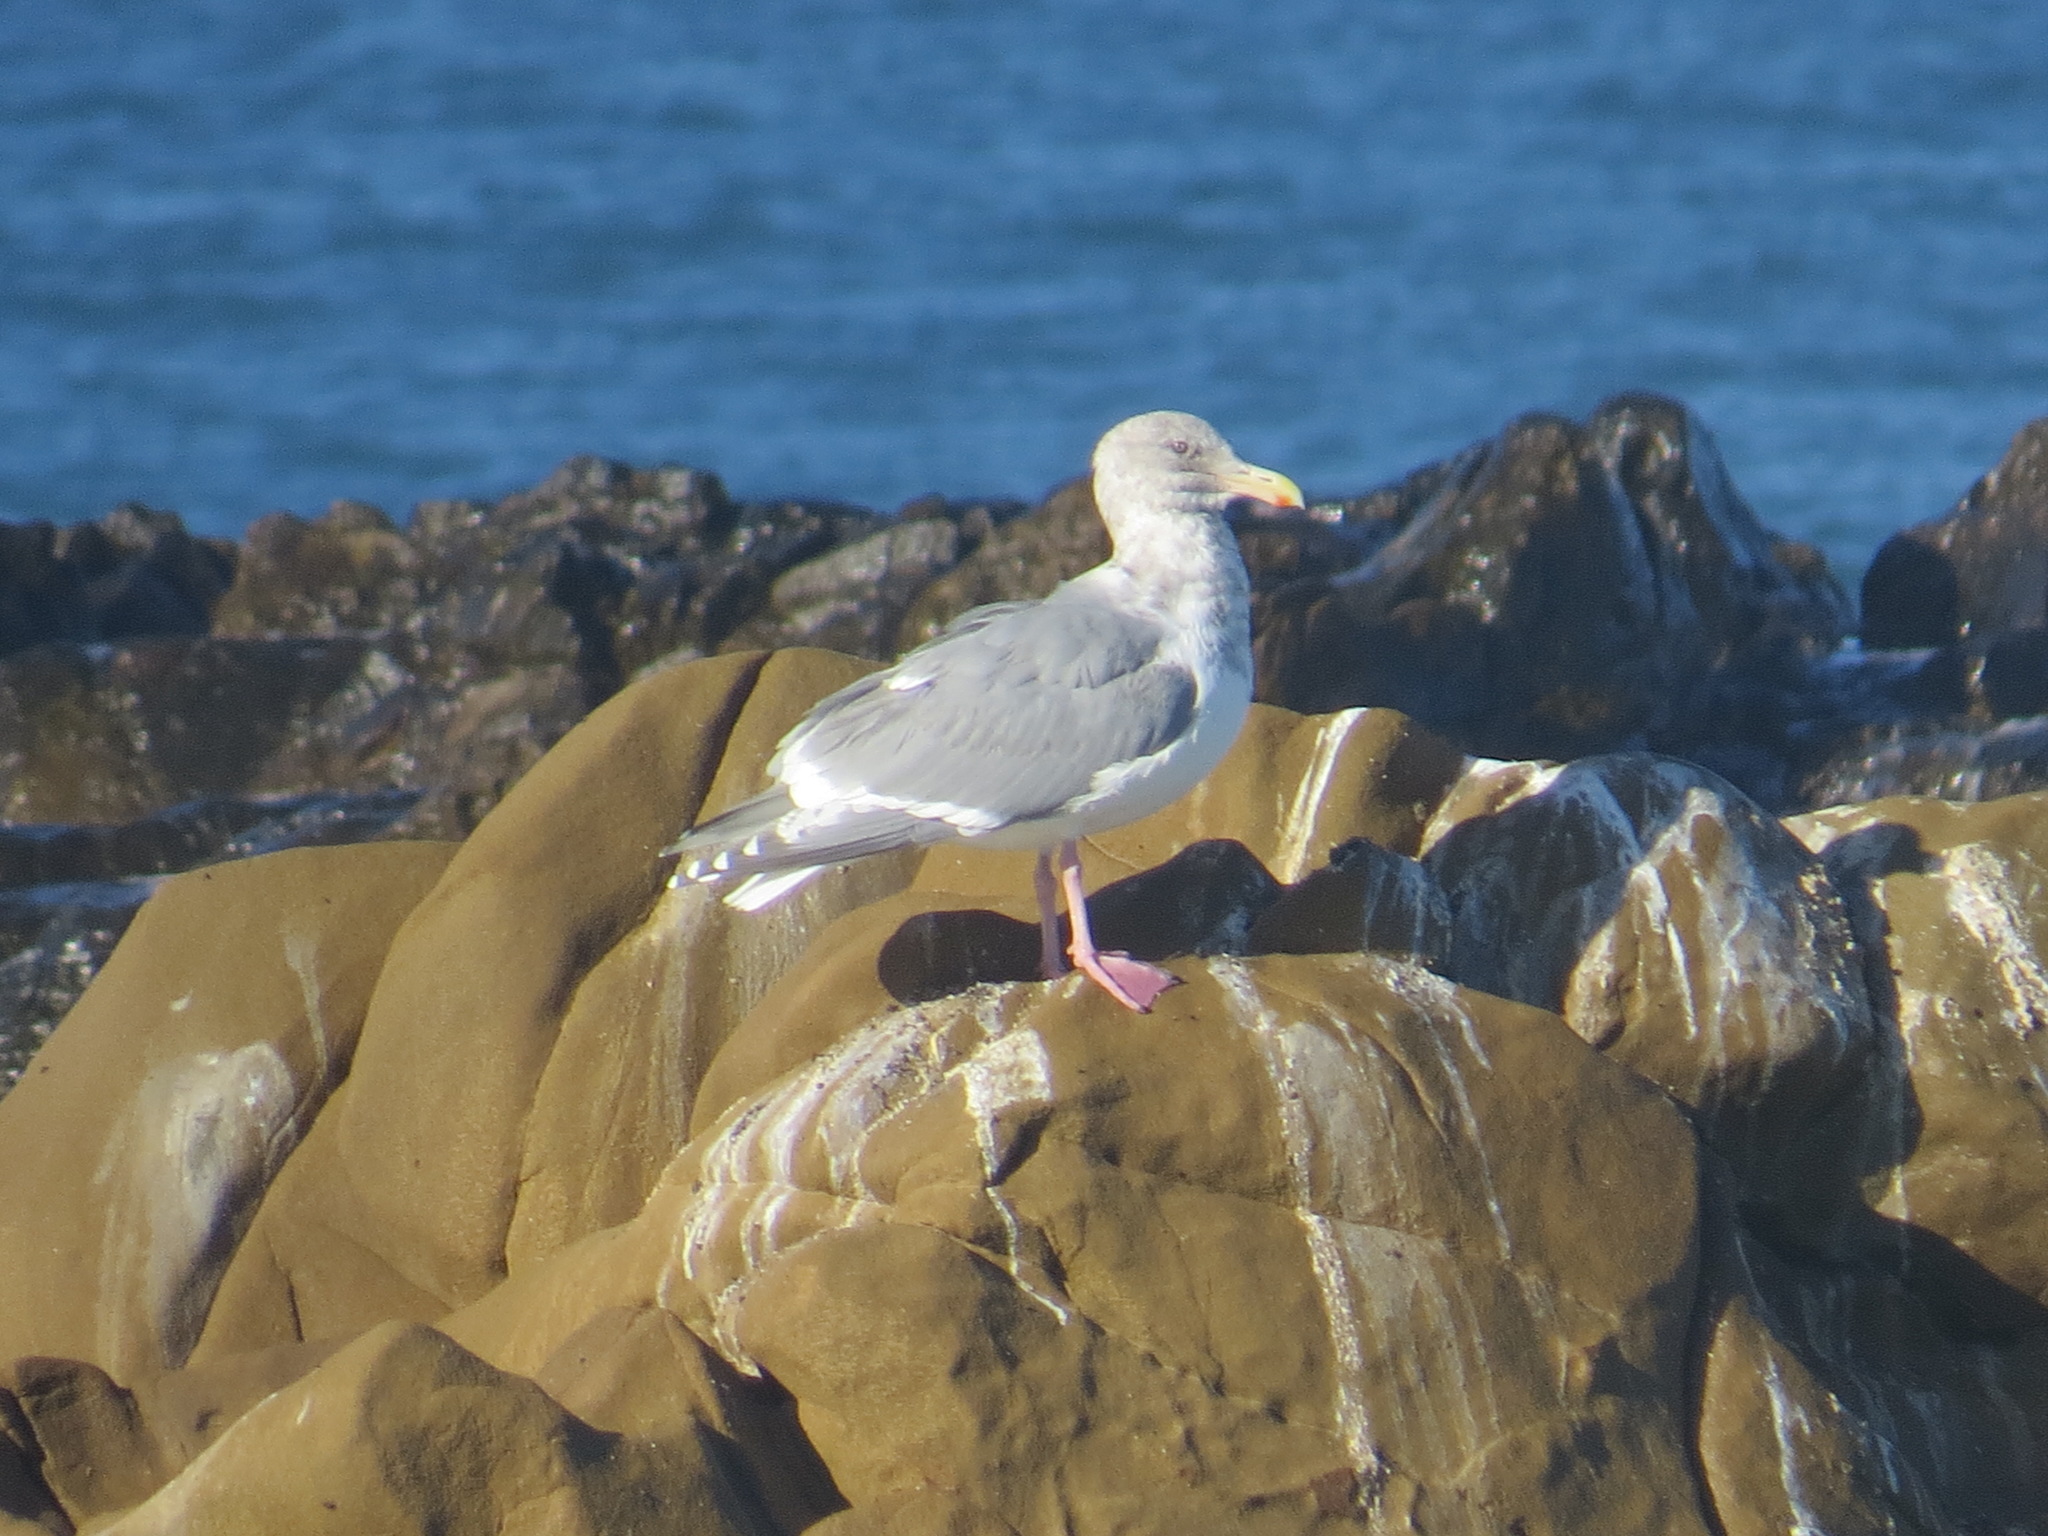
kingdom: Animalia
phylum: Chordata
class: Aves
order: Charadriiformes
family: Laridae
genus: Larus
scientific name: Larus glaucescens
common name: Glaucous-winged gull
